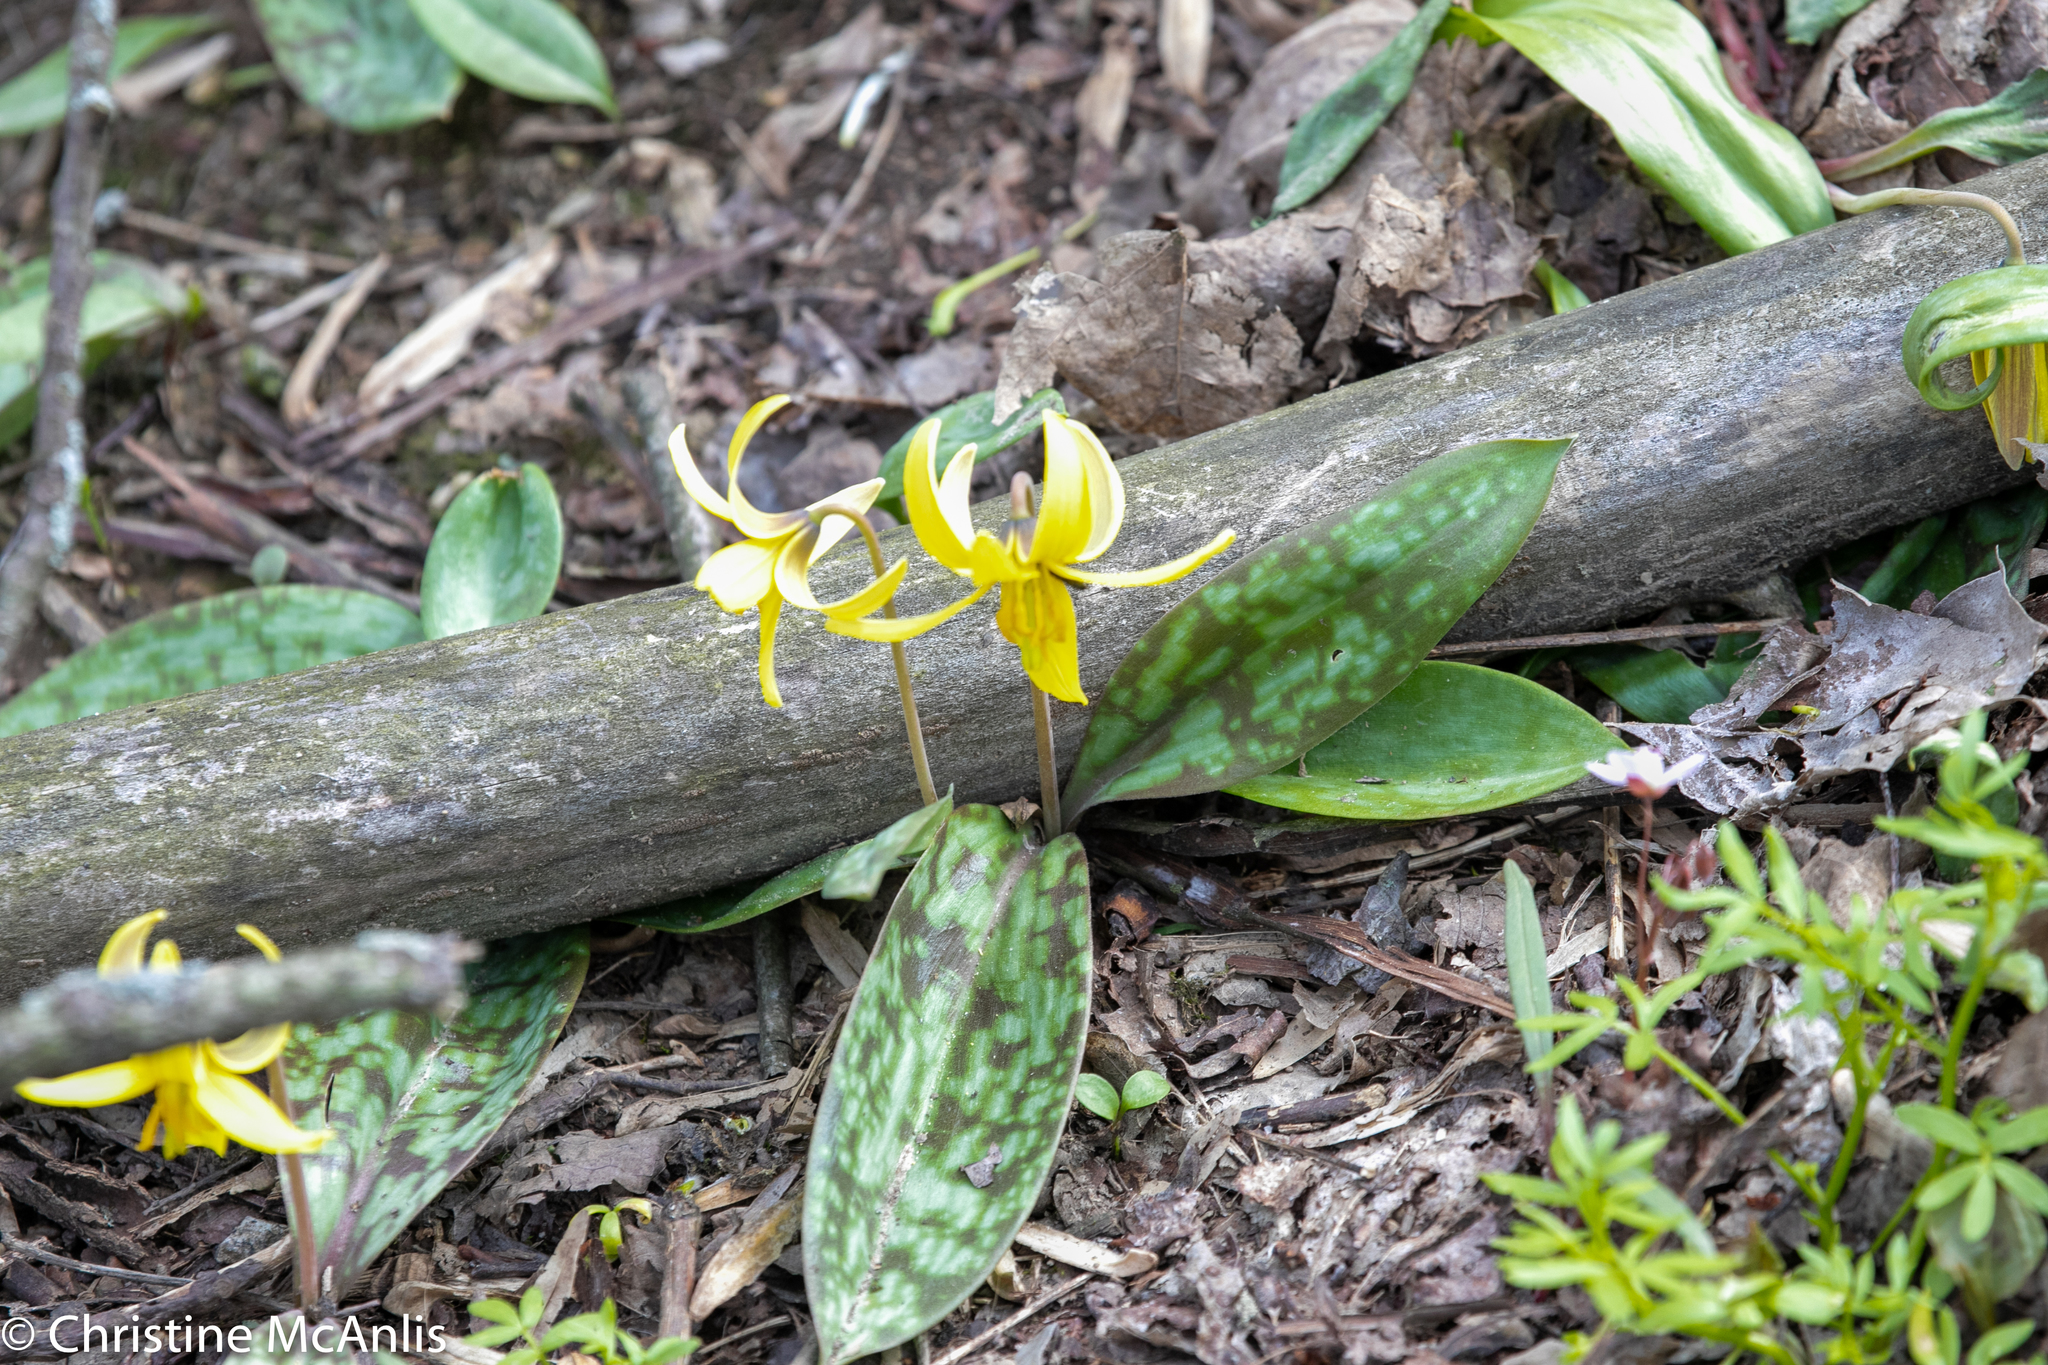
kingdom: Plantae
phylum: Tracheophyta
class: Liliopsida
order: Liliales
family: Liliaceae
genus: Erythronium
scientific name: Erythronium americanum
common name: Yellow adder's-tongue
